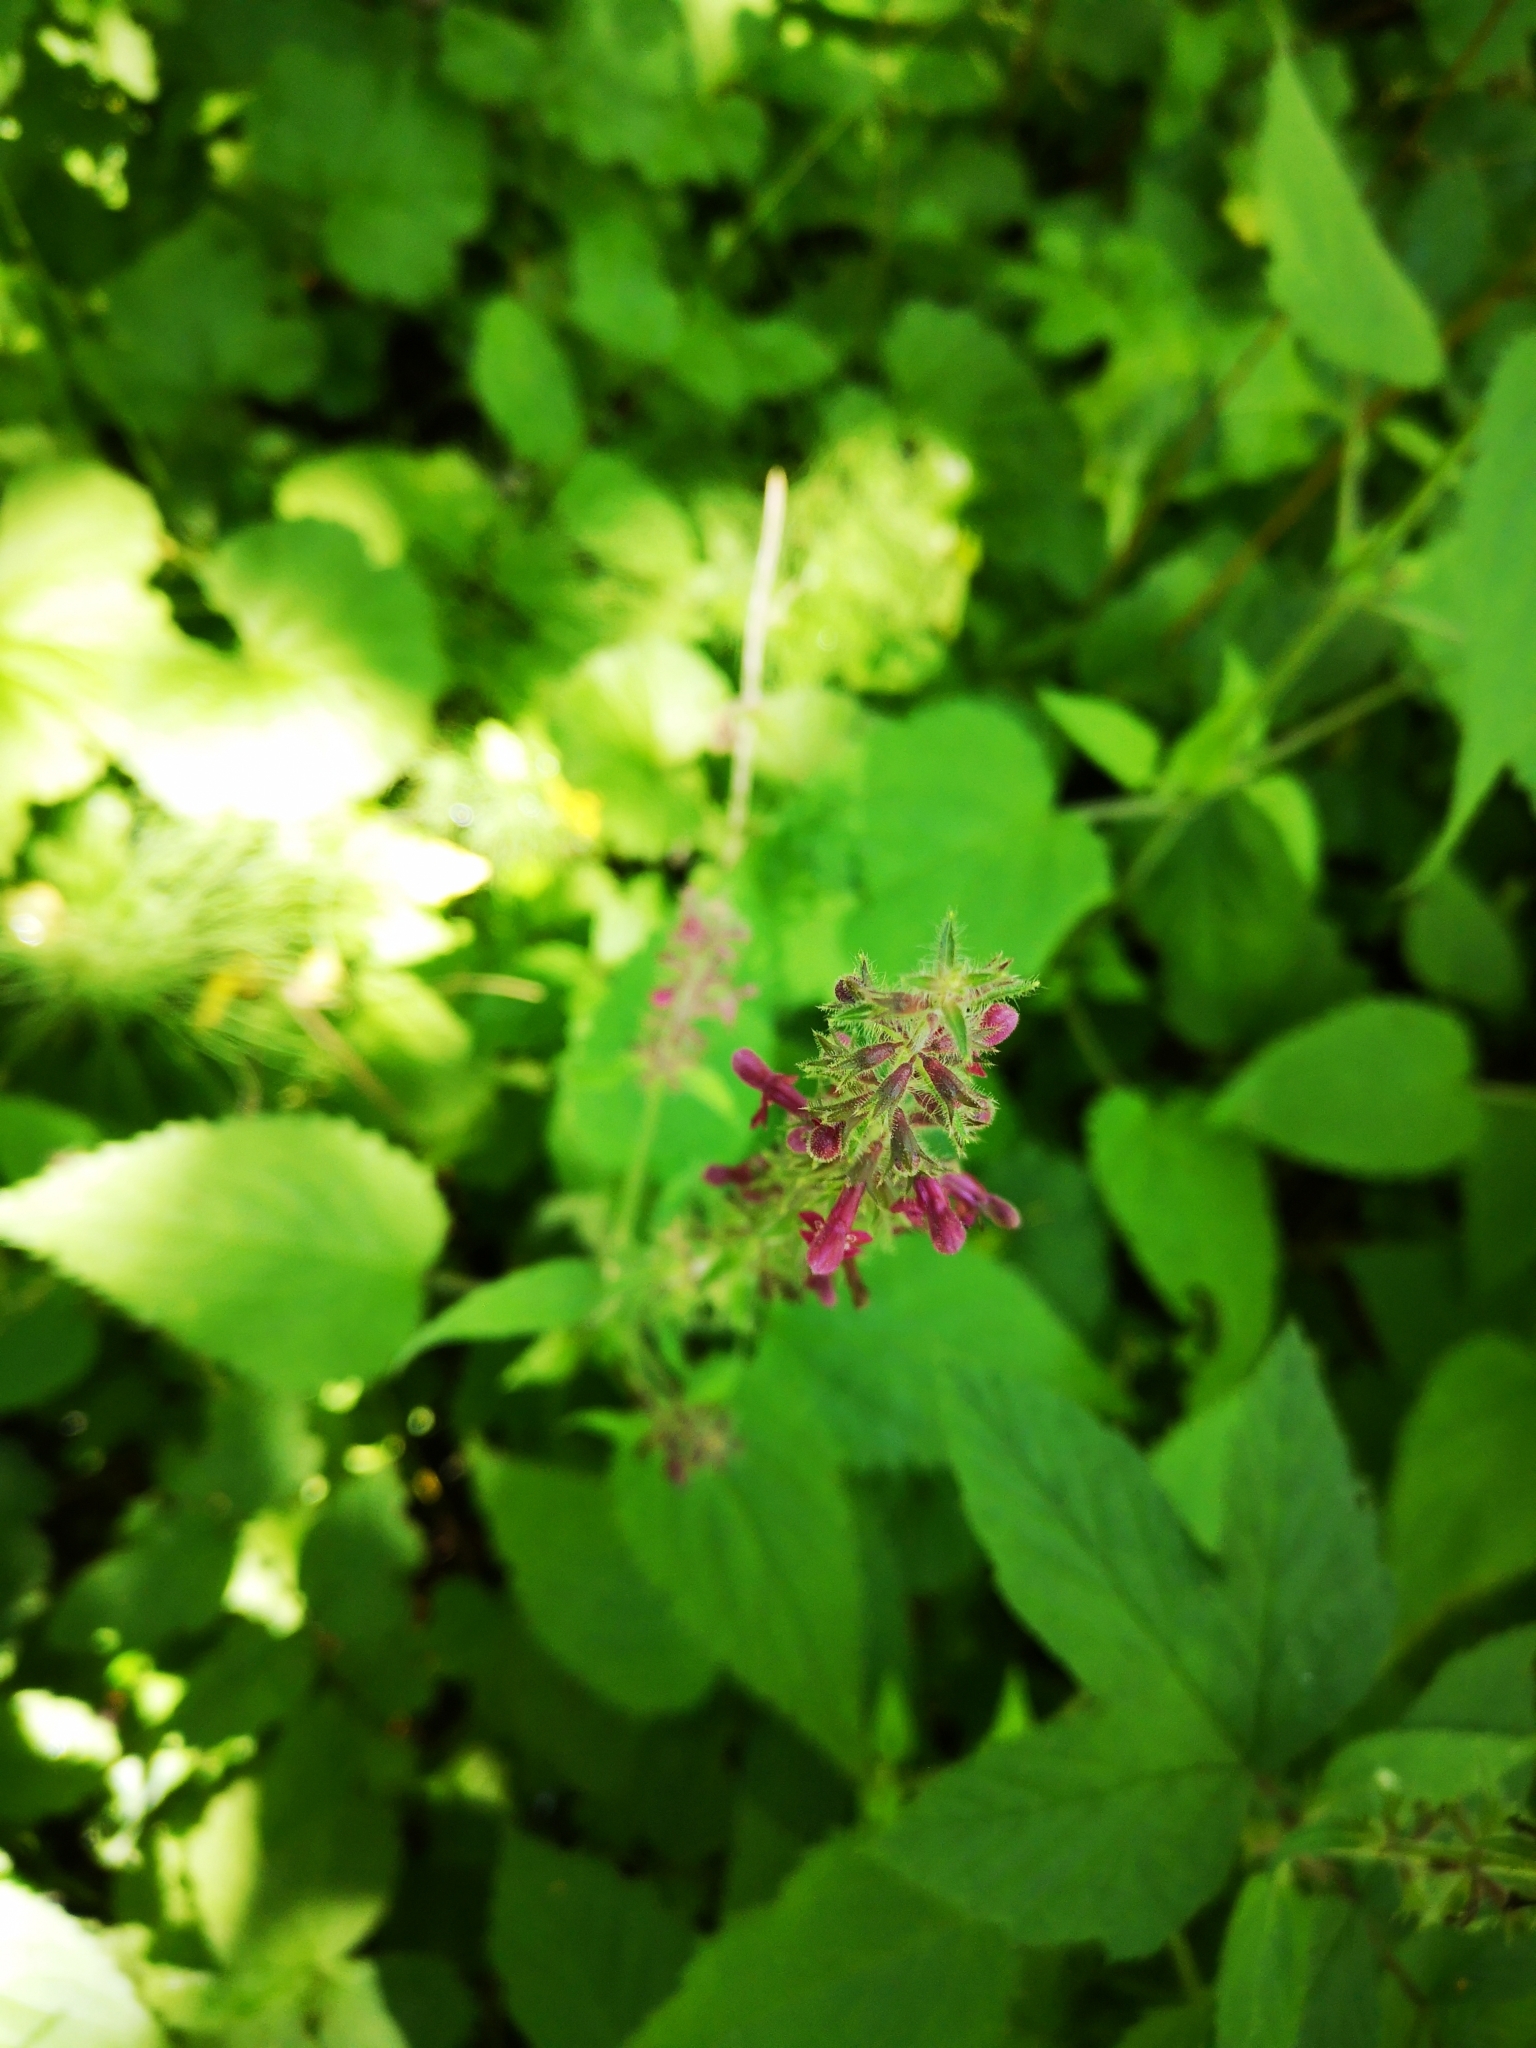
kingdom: Plantae
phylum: Tracheophyta
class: Magnoliopsida
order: Lamiales
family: Lamiaceae
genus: Stachys
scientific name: Stachys sylvatica
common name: Hedge woundwort
